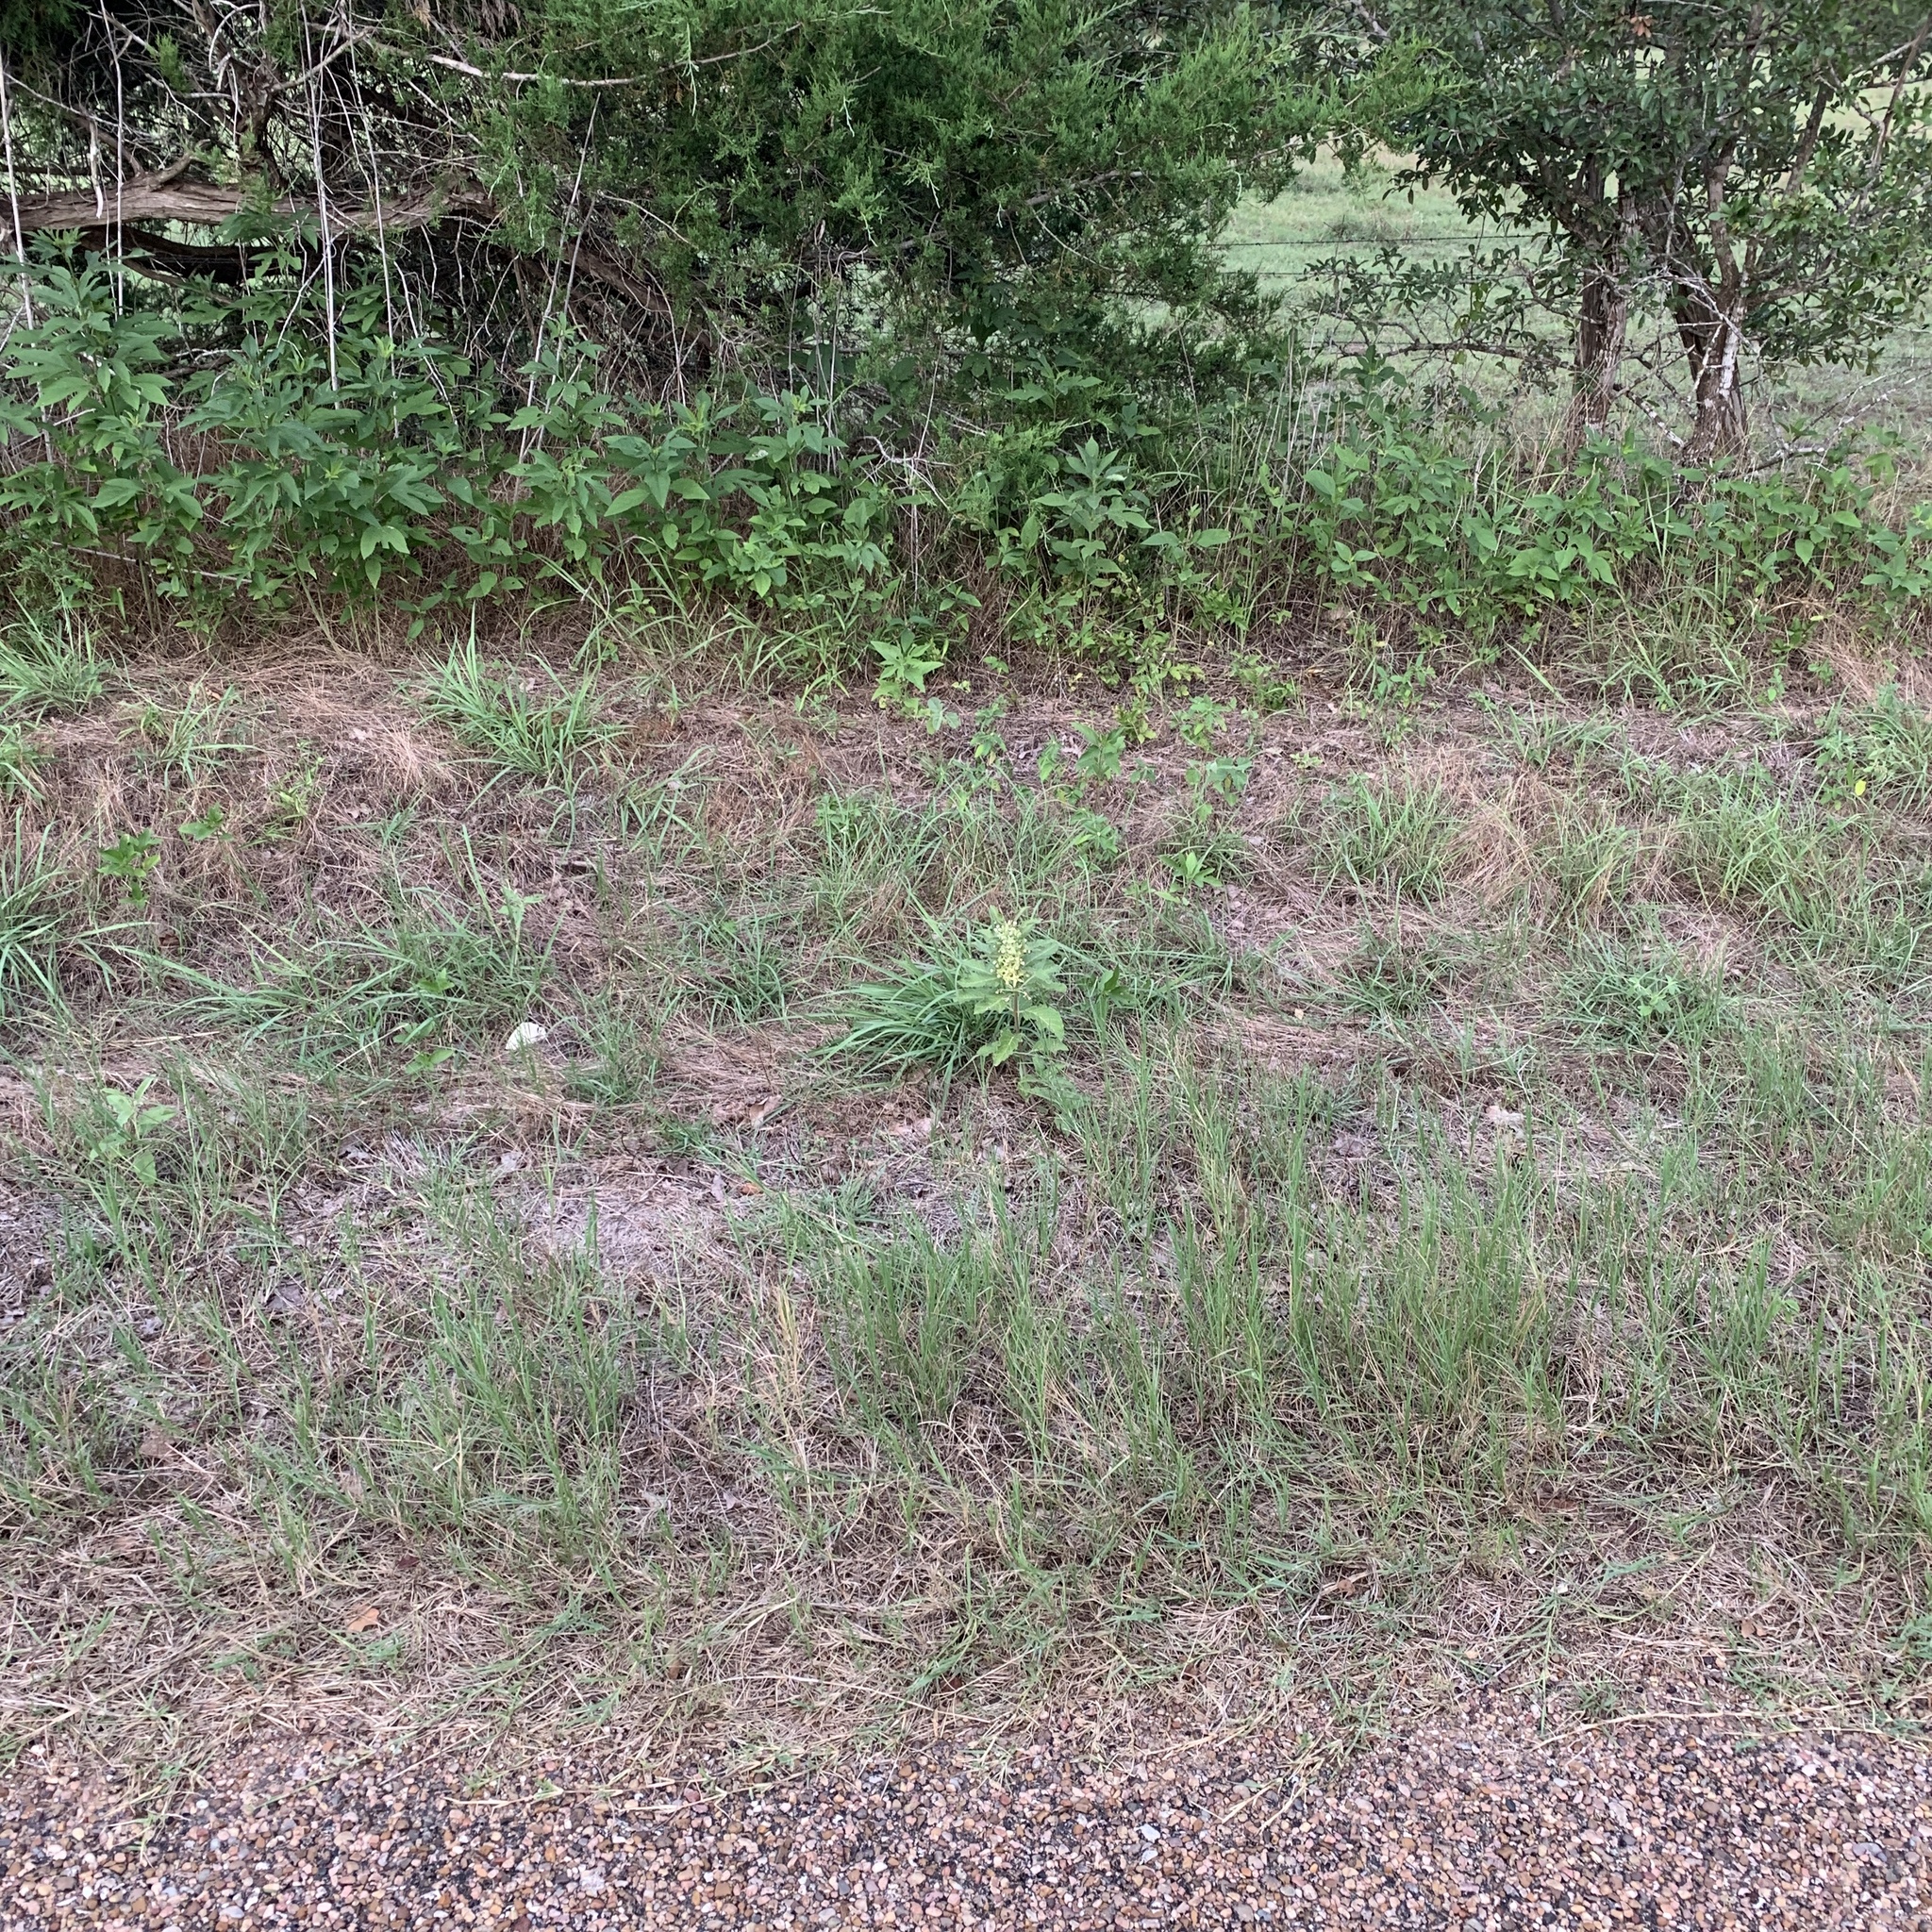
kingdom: Plantae
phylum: Tracheophyta
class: Magnoliopsida
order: Gentianales
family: Apocynaceae
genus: Asclepias
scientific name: Asclepias oenotheroides
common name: Zizotes milkweed
